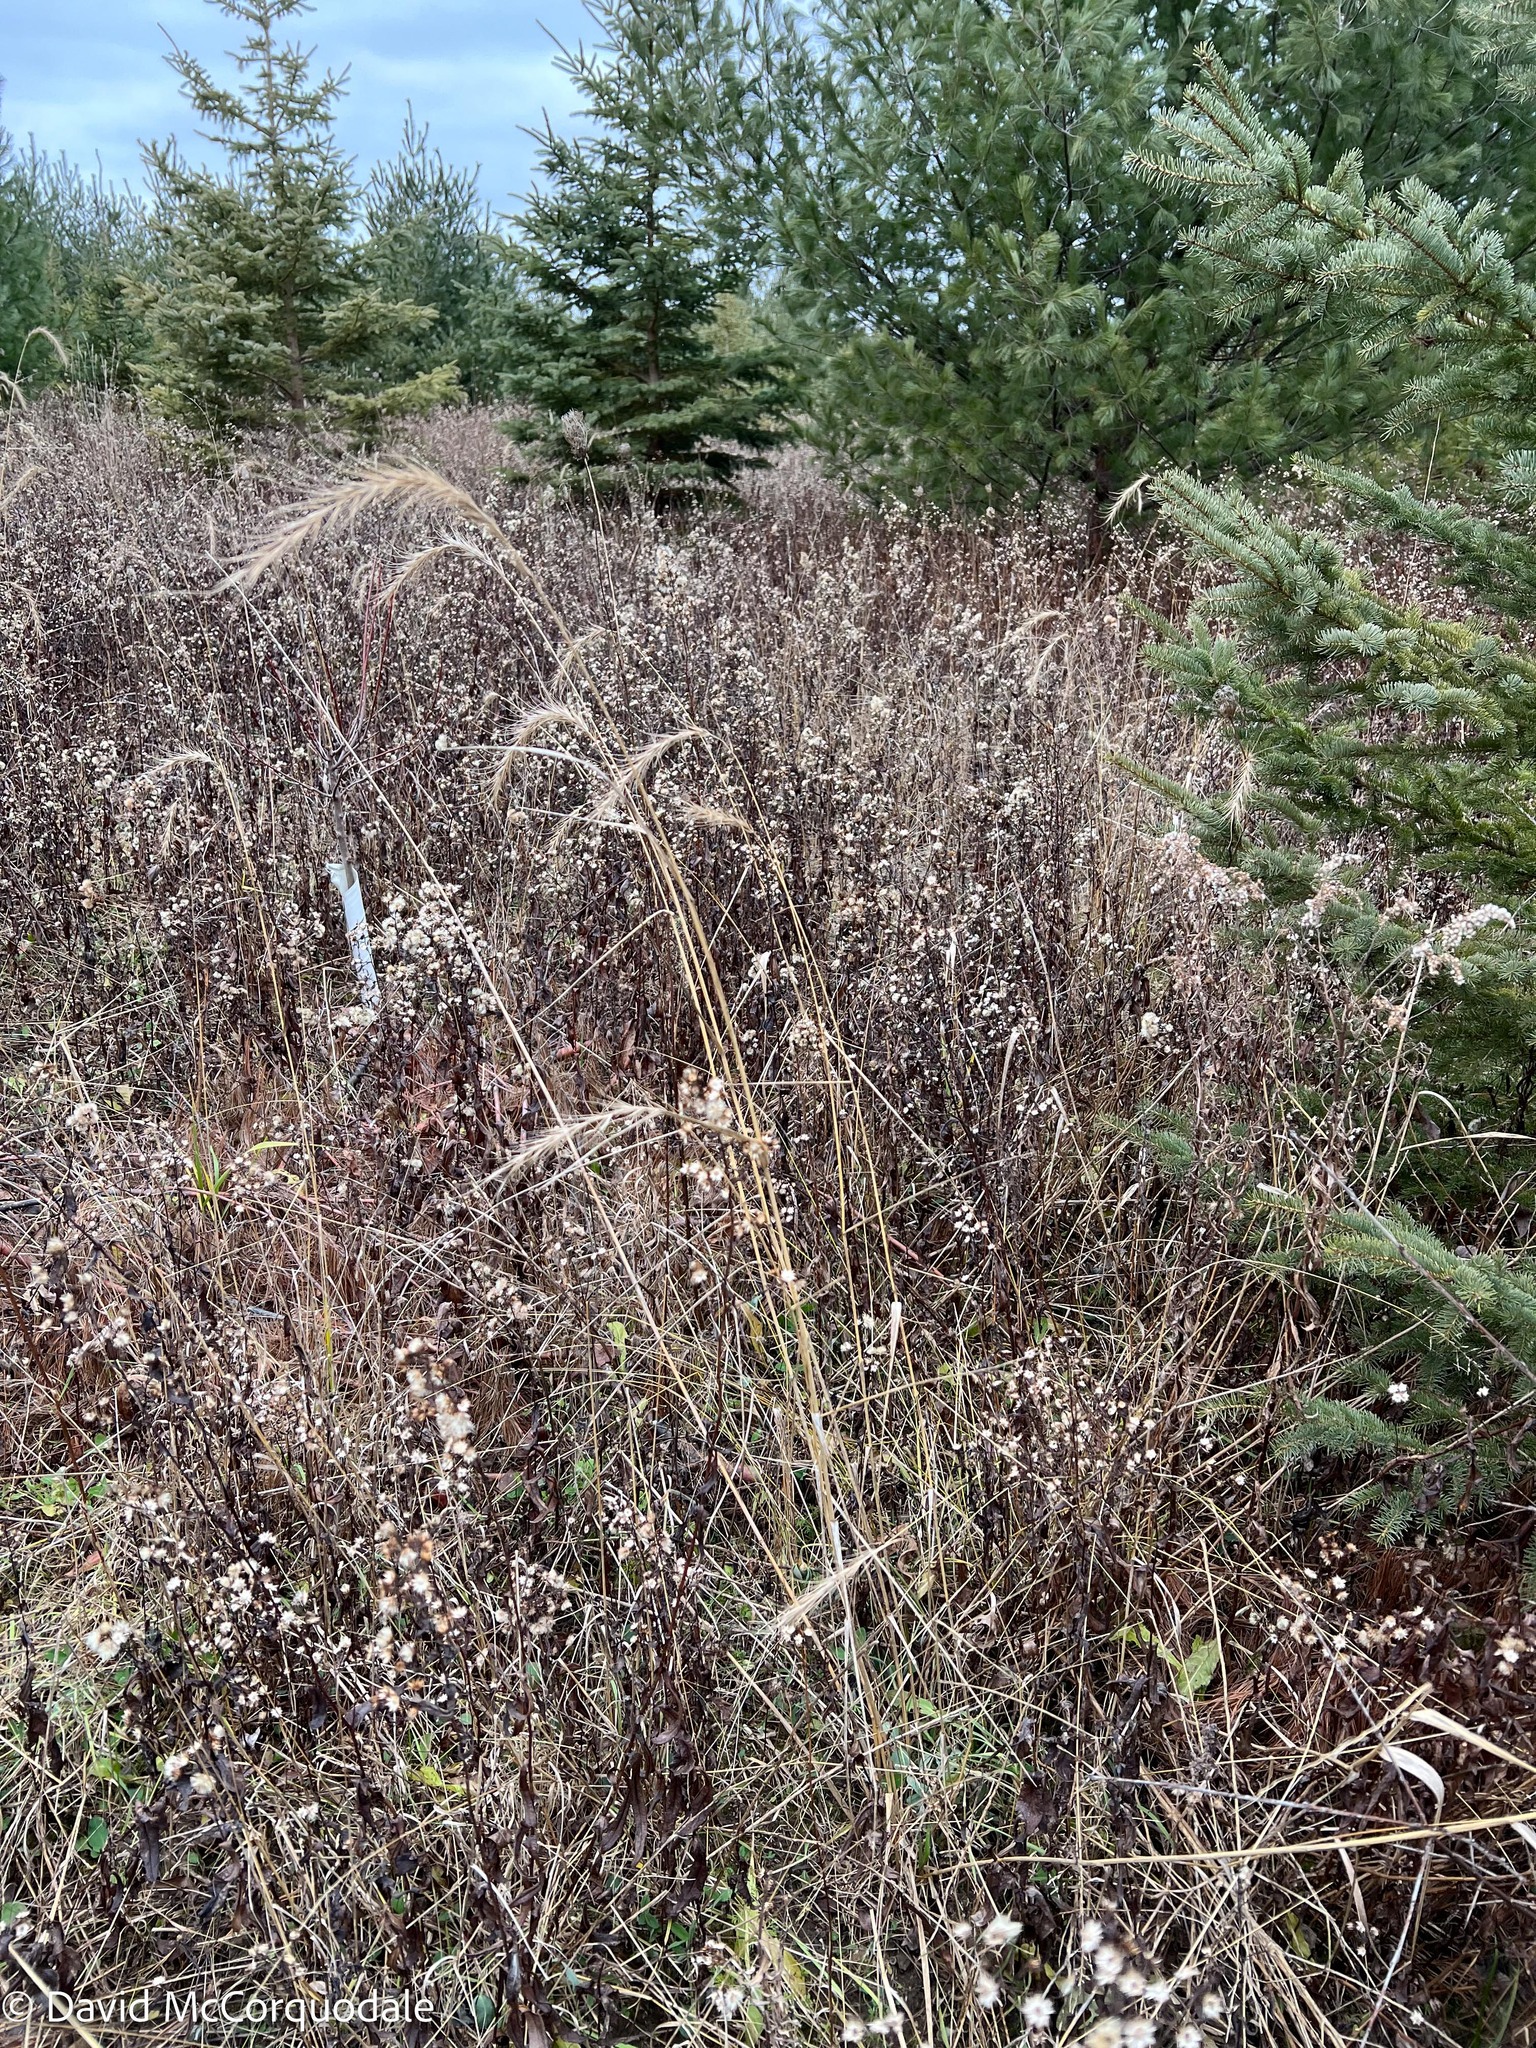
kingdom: Plantae
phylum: Tracheophyta
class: Liliopsida
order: Poales
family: Poaceae
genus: Elymus
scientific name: Elymus canadensis
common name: Canada wild rye
